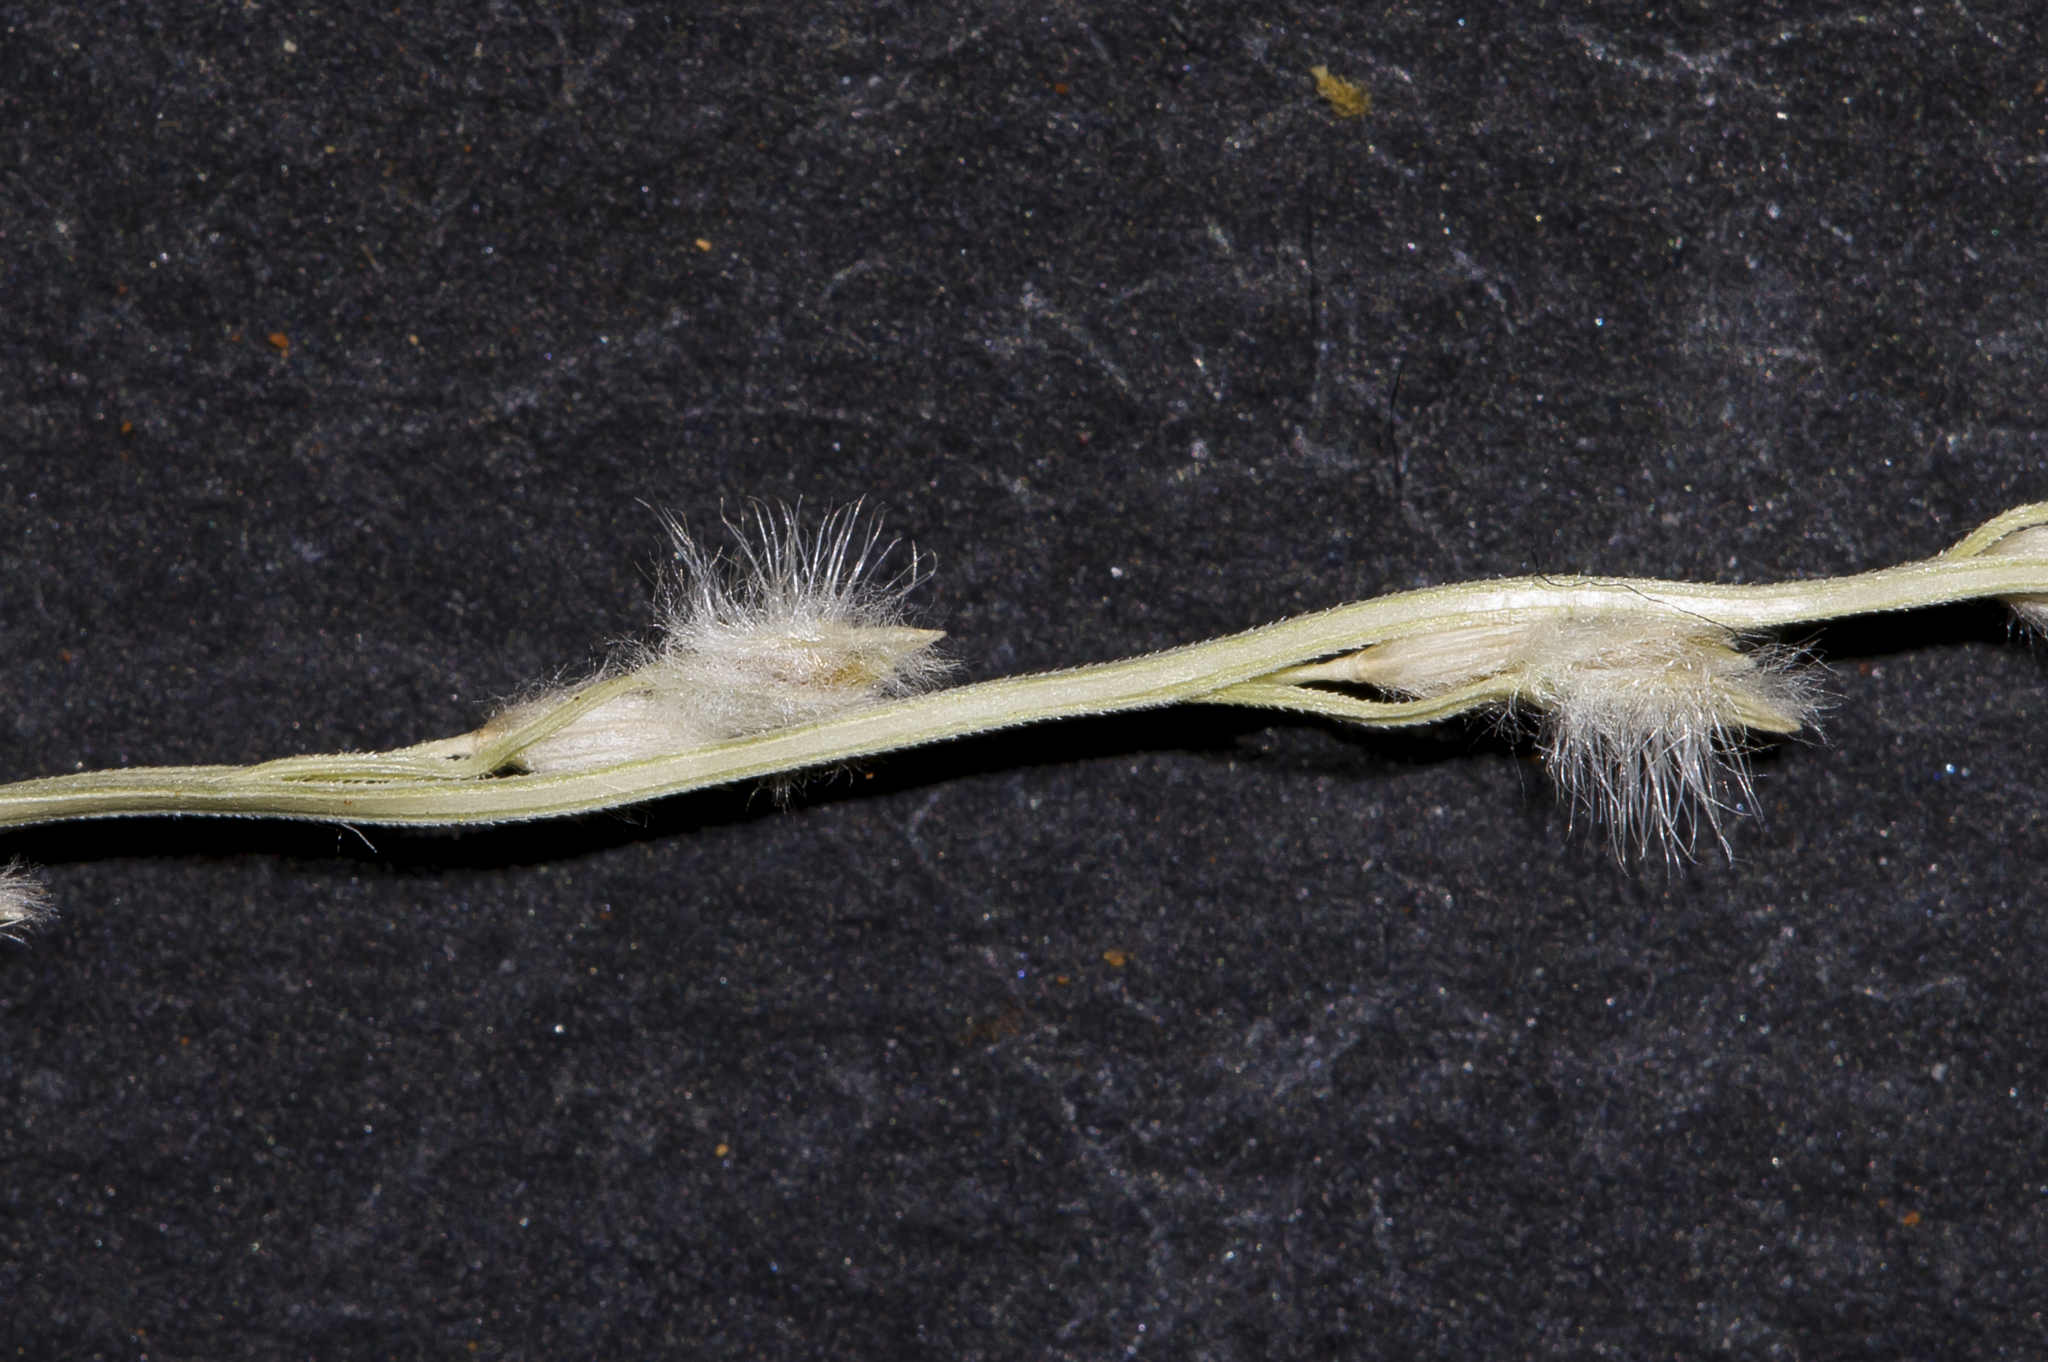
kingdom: Plantae
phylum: Tracheophyta
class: Liliopsida
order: Poales
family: Poaceae
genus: Digitaria
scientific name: Digitaria hystrichoides
